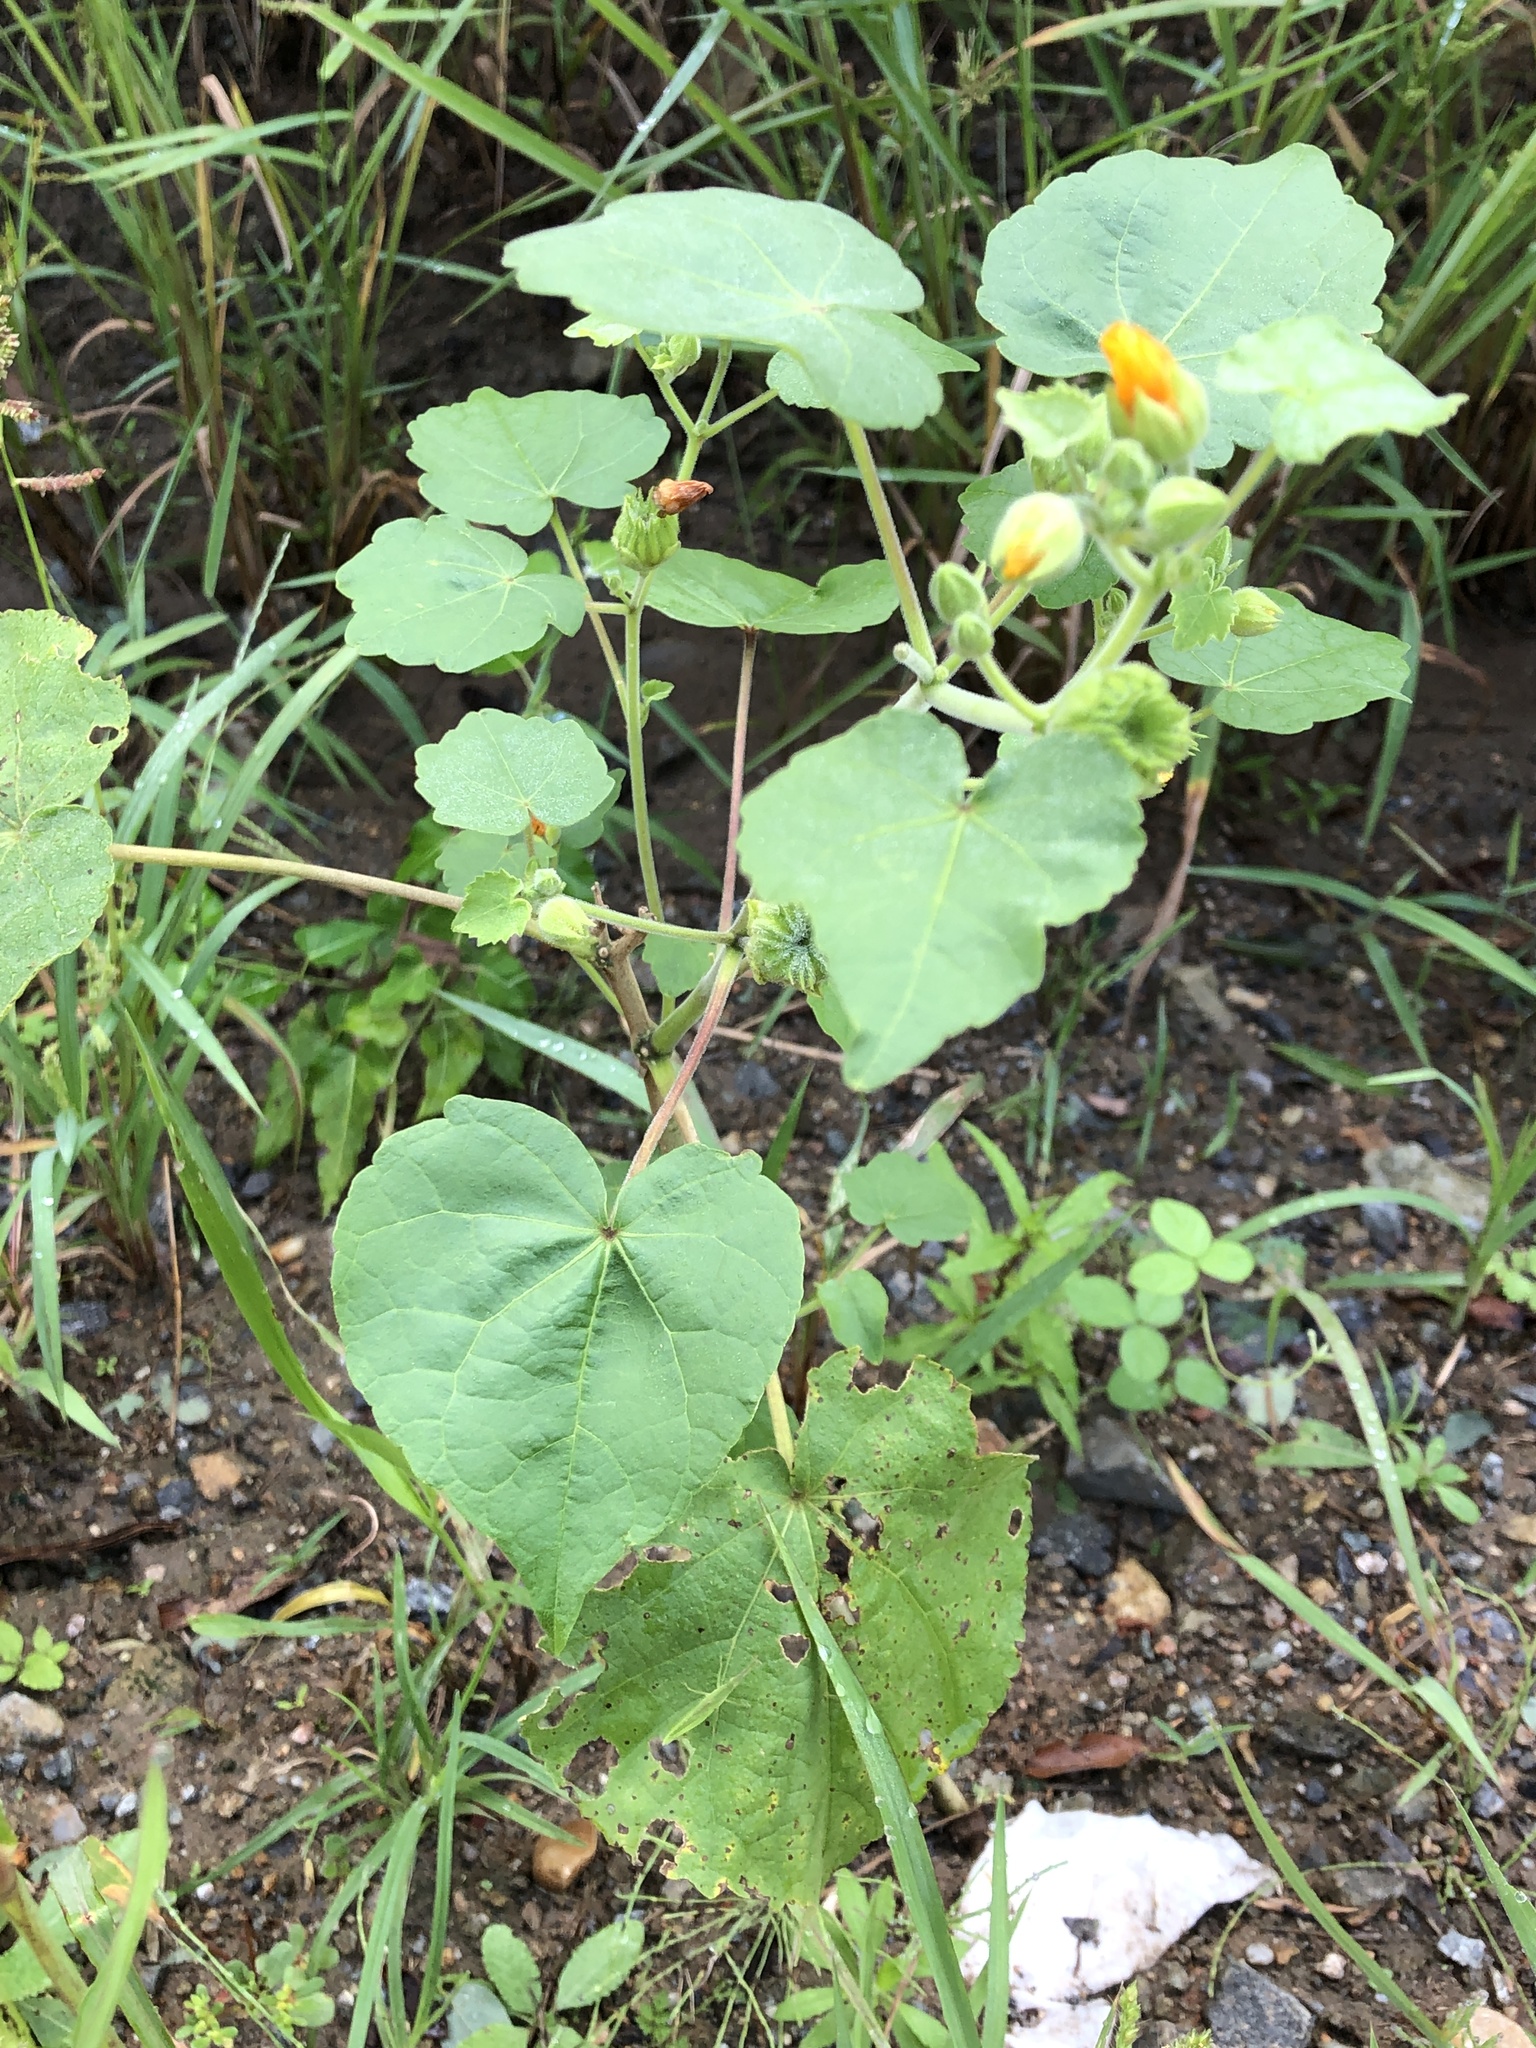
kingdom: Plantae
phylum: Tracheophyta
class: Magnoliopsida
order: Malvales
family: Malvaceae
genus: Abutilon
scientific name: Abutilon theophrasti
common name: Velvetleaf
